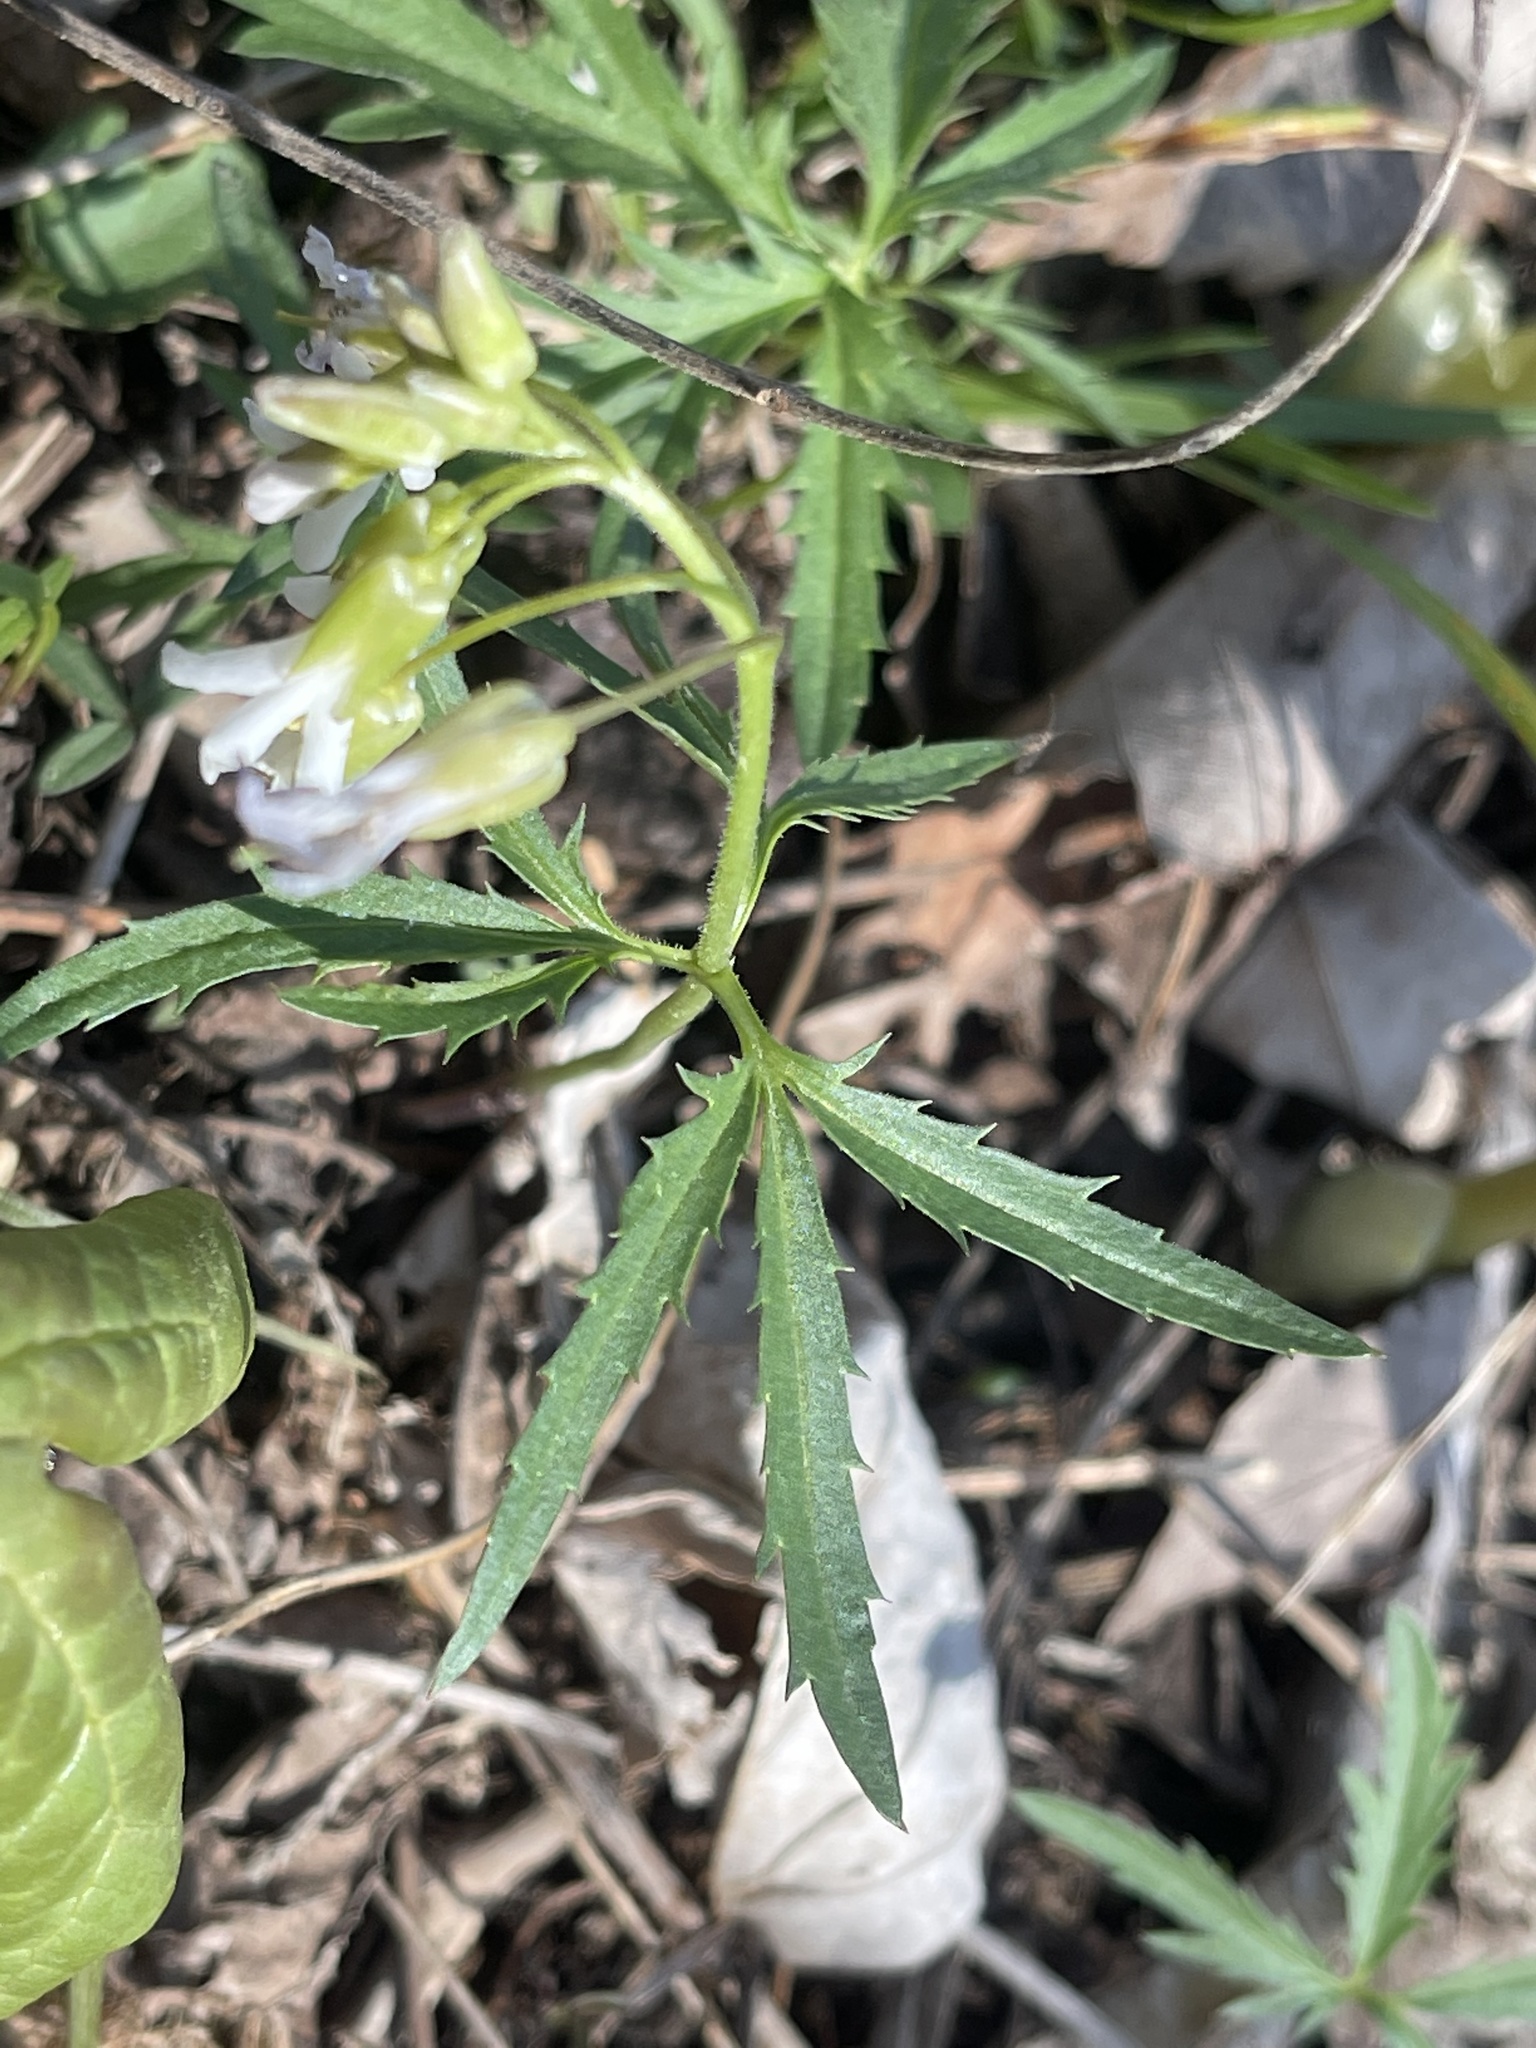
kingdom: Plantae
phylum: Tracheophyta
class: Magnoliopsida
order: Brassicales
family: Brassicaceae
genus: Cardamine
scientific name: Cardamine concatenata
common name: Cut-leaf toothcup
